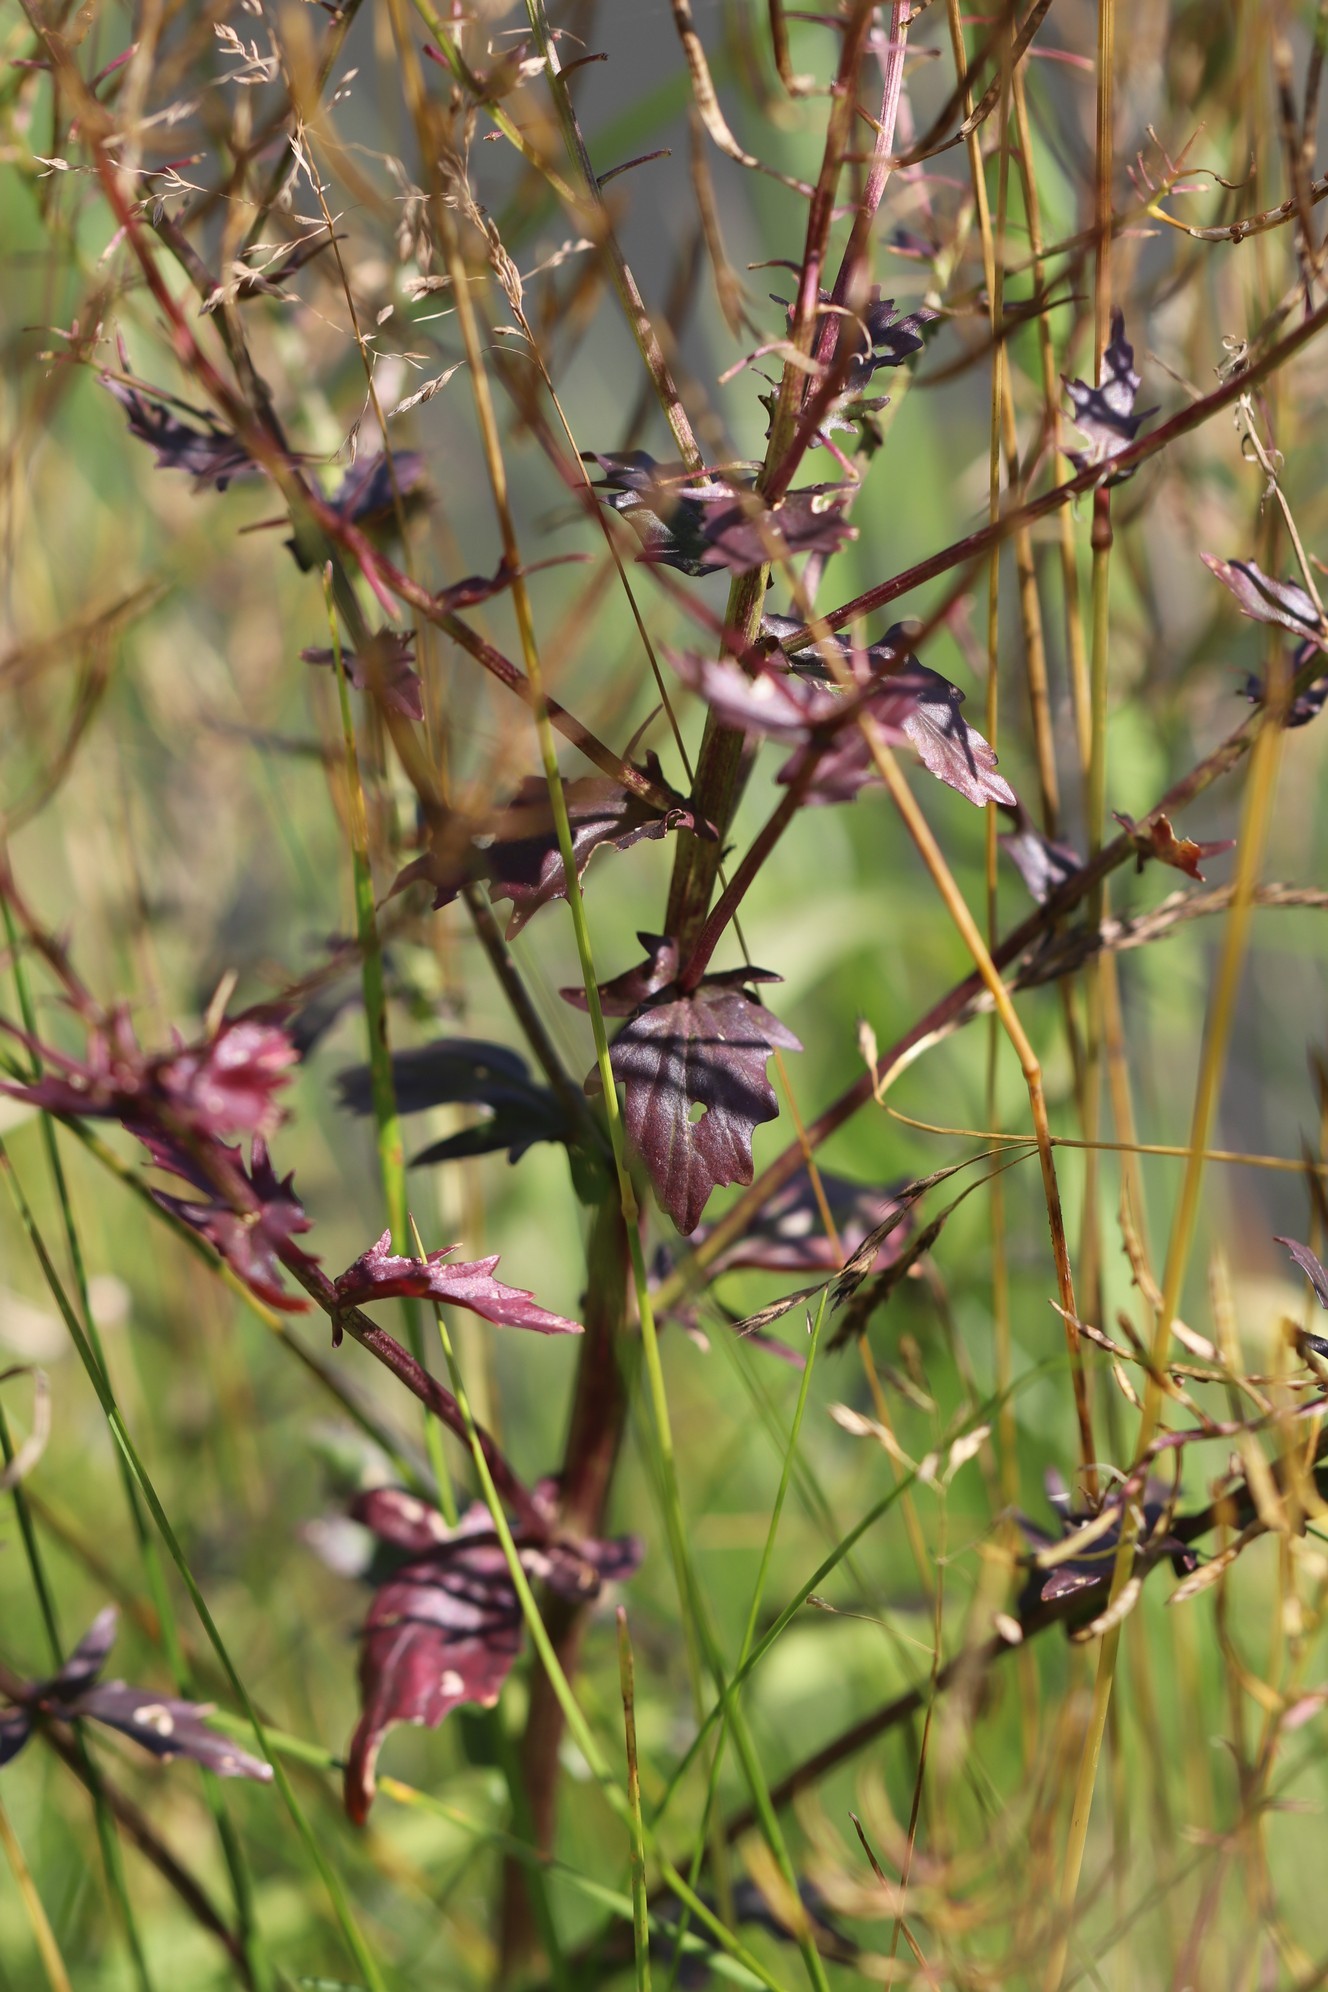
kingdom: Plantae
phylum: Tracheophyta
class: Magnoliopsida
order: Brassicales
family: Brassicaceae
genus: Rorippa
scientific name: Rorippa palustris
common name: Marsh yellow-cress
